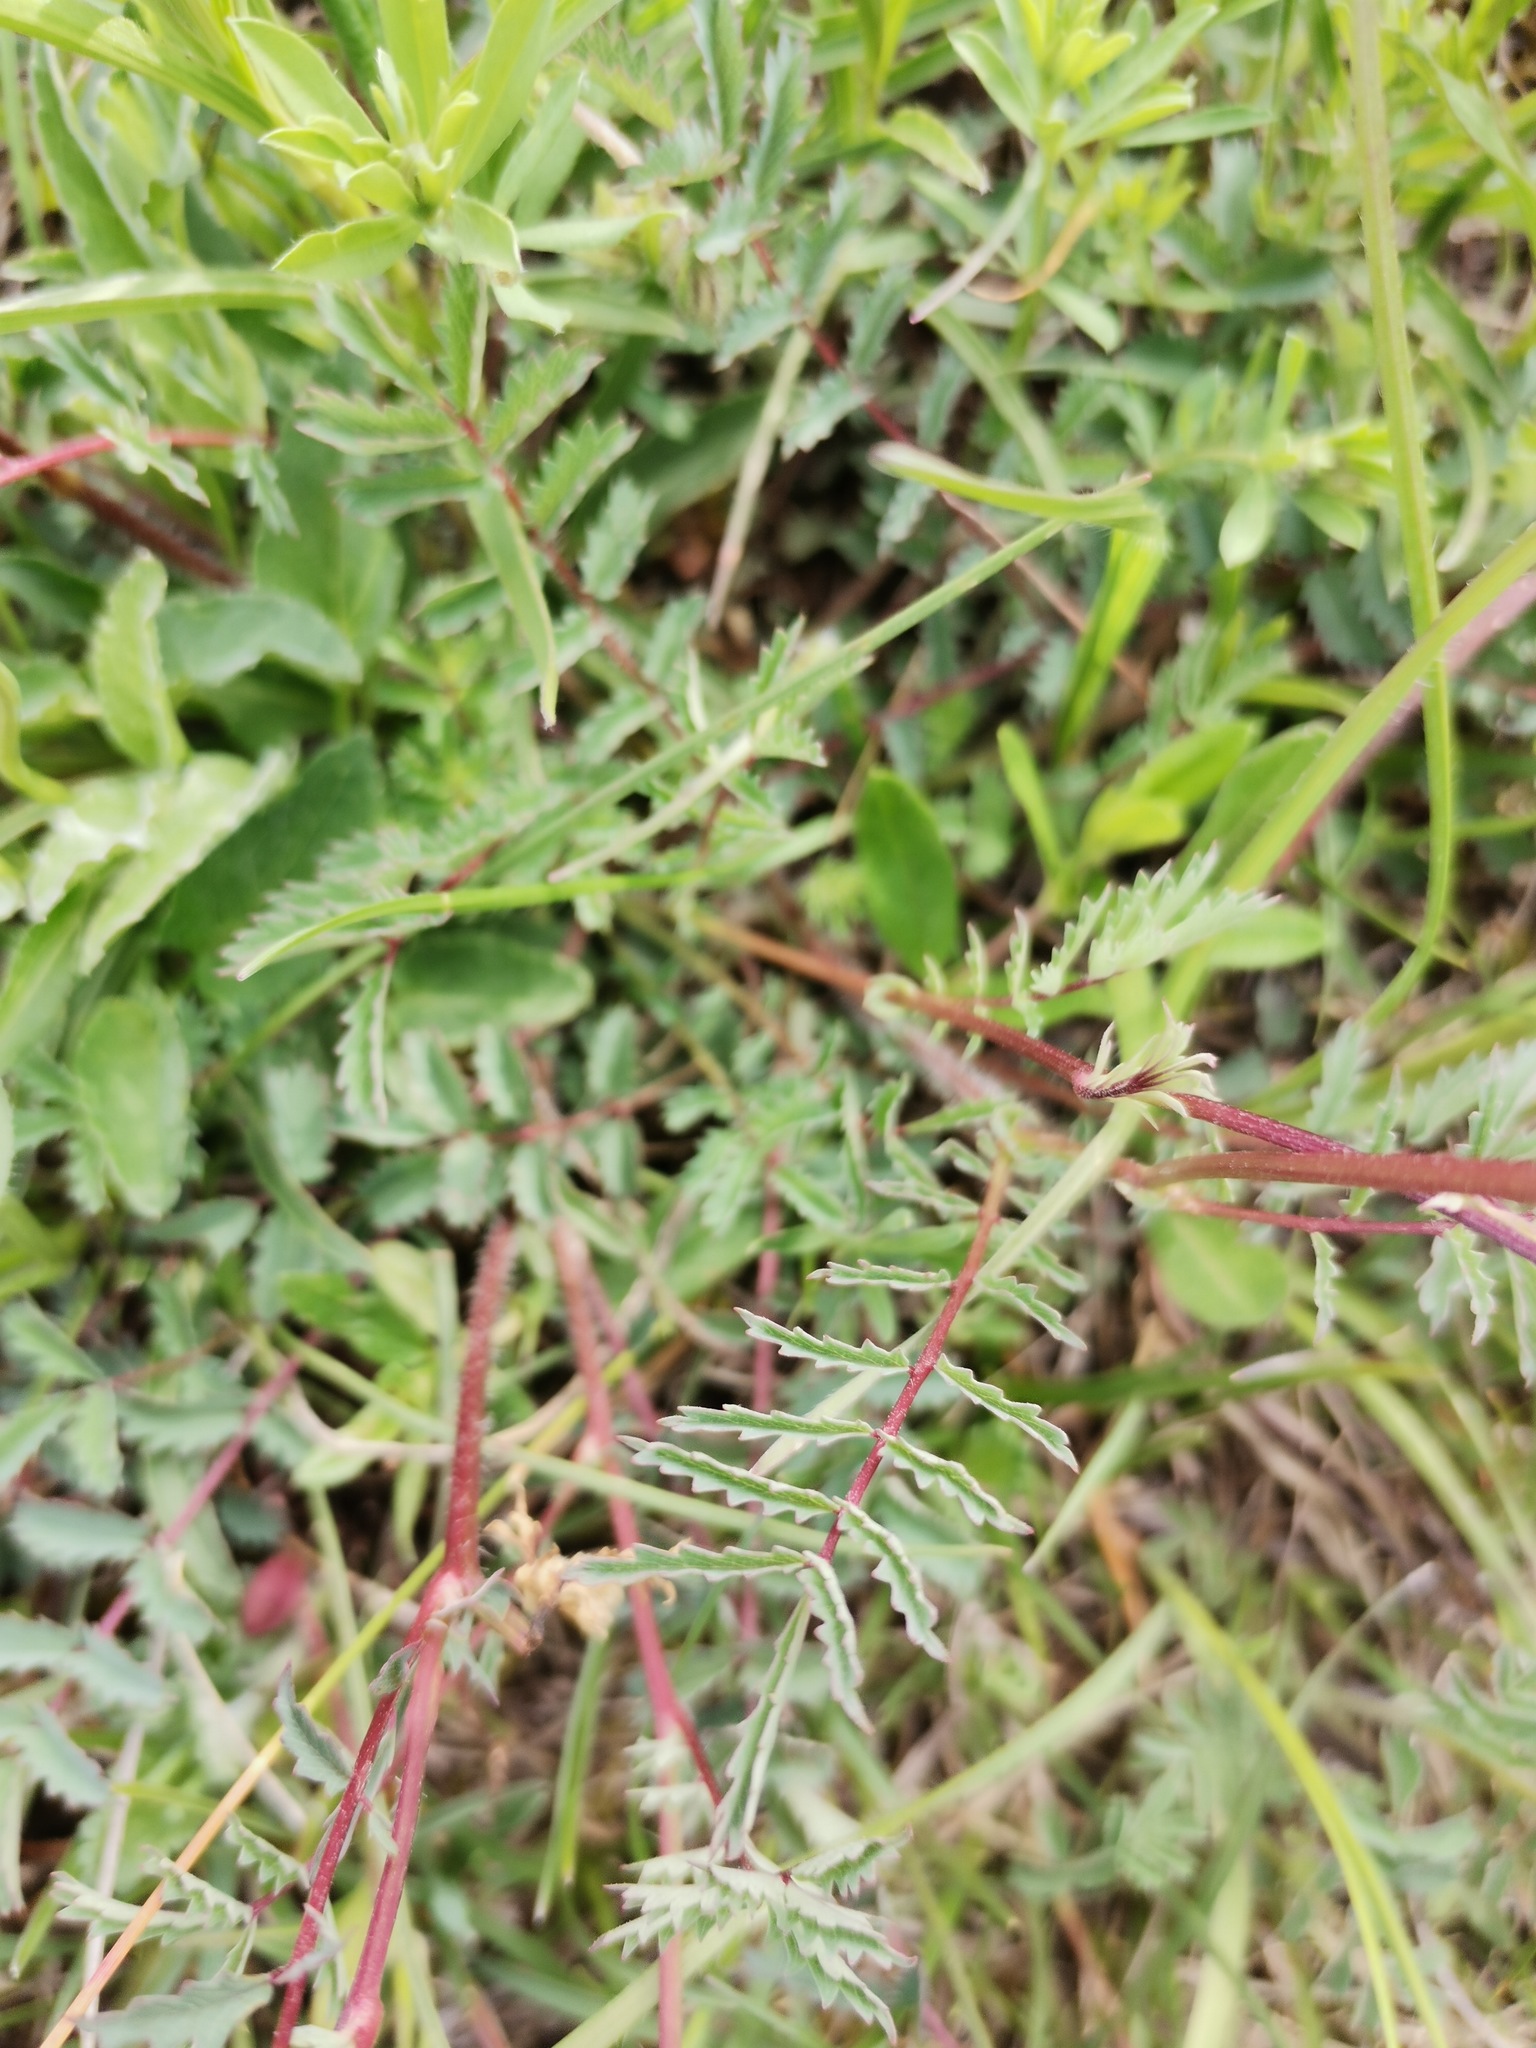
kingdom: Plantae
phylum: Tracheophyta
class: Magnoliopsida
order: Rosales
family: Rosaceae
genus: Poterium
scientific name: Poterium sanguisorba
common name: Salad burnet
